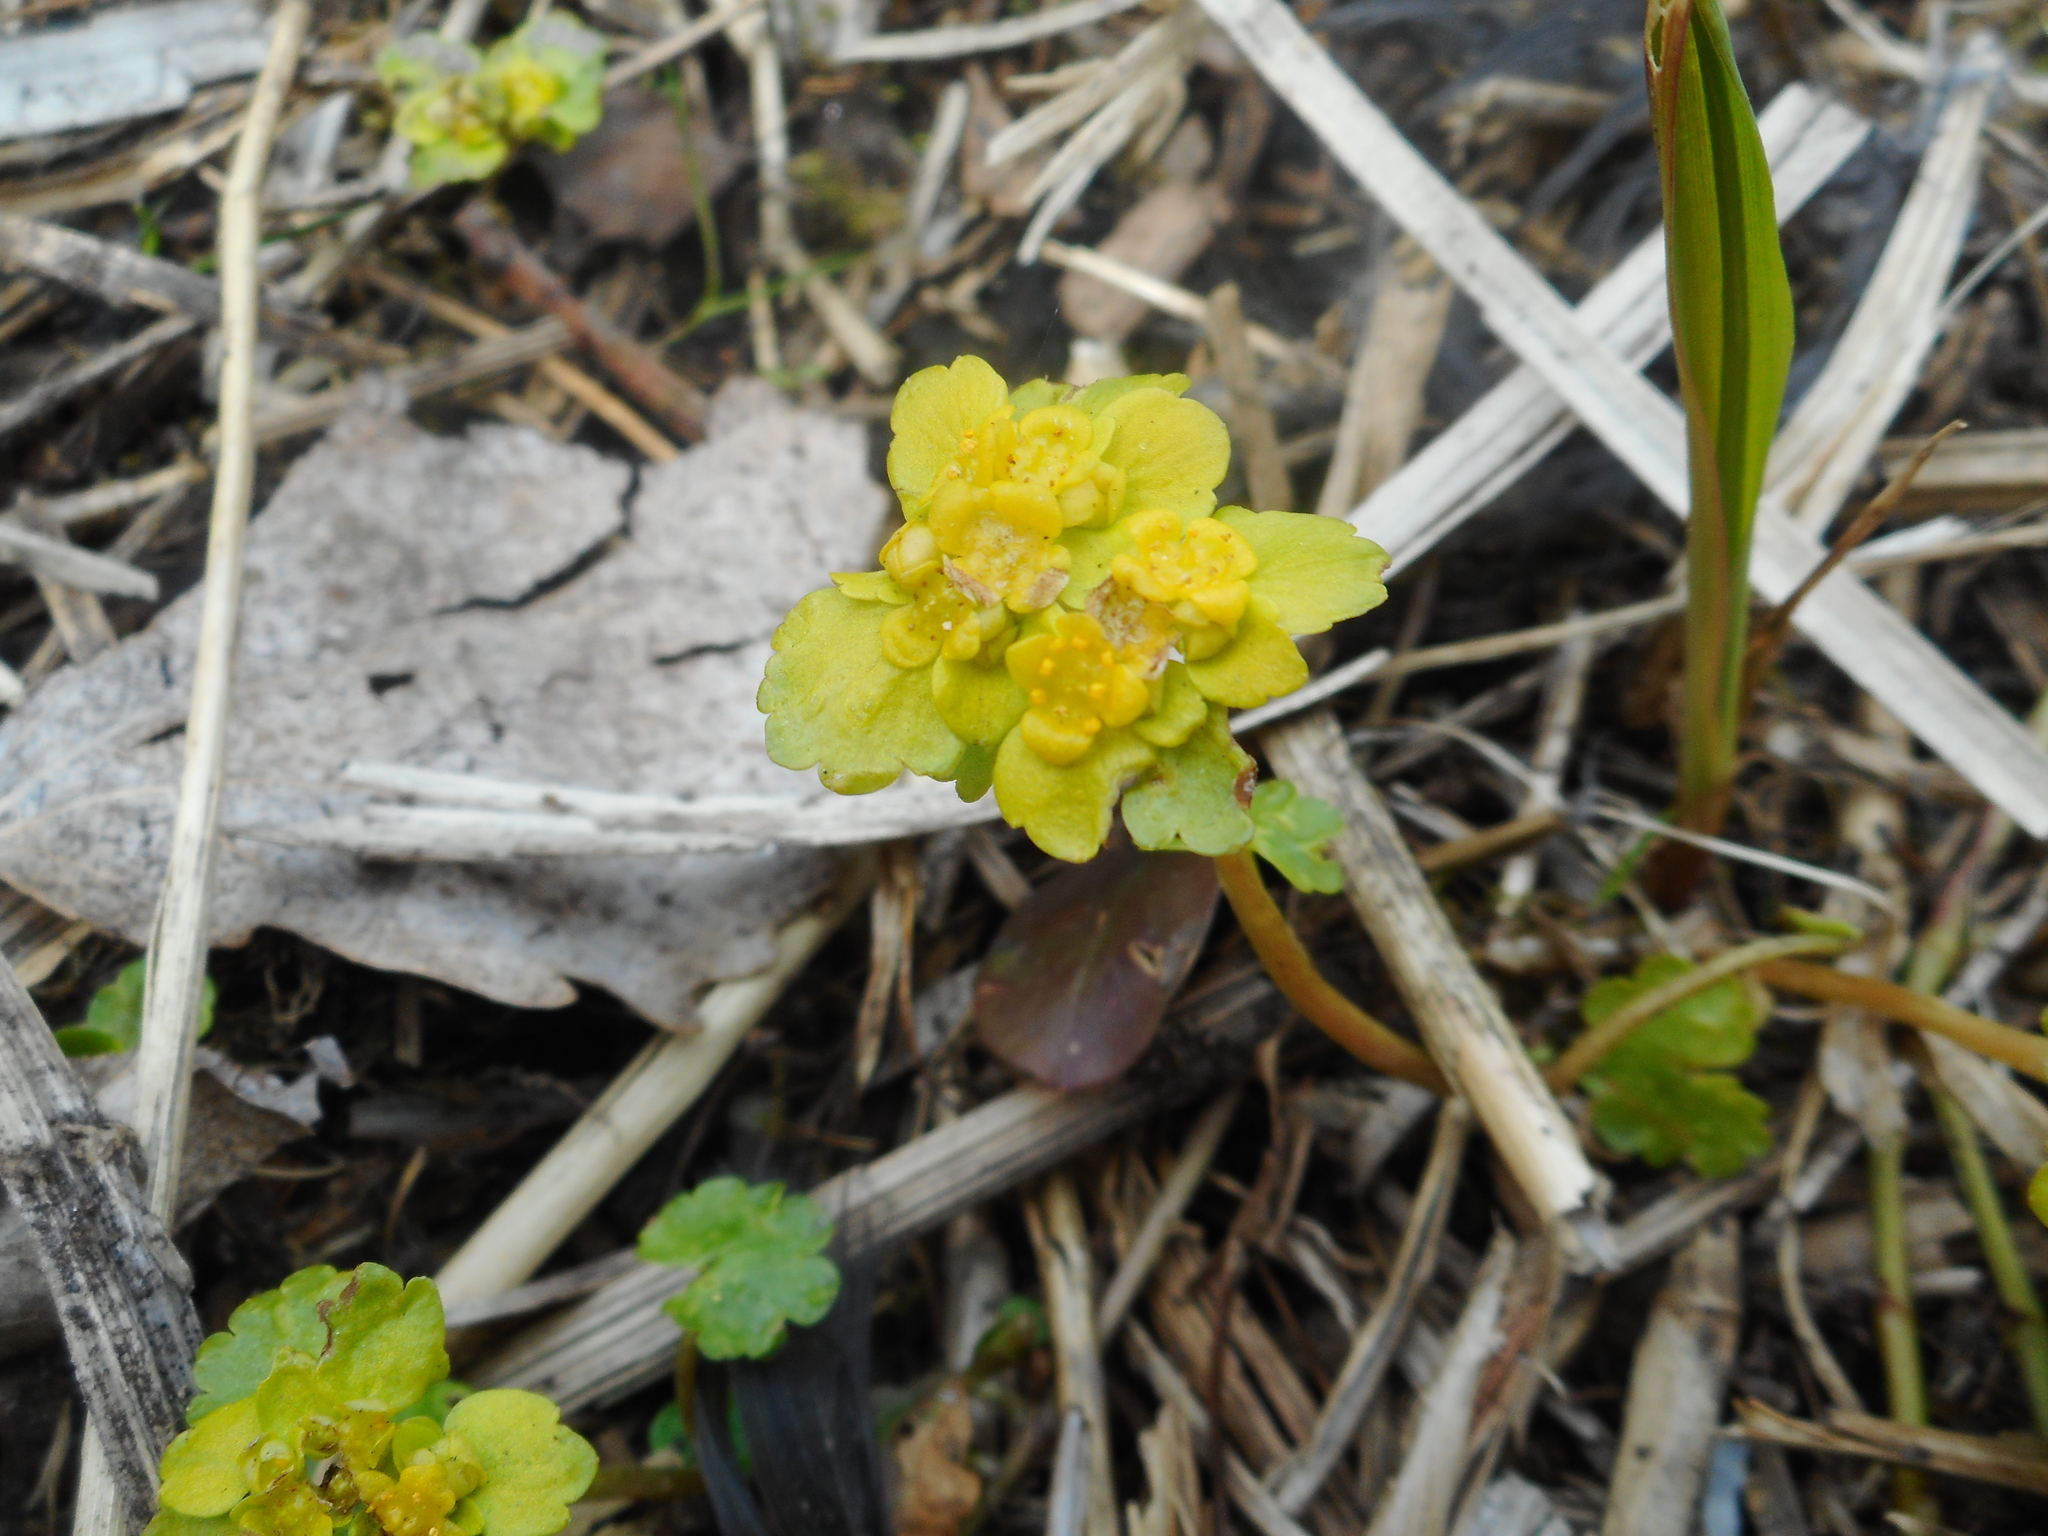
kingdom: Plantae
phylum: Tracheophyta
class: Magnoliopsida
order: Saxifragales
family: Saxifragaceae
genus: Chrysosplenium
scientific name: Chrysosplenium alternifolium
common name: Alternate-leaved golden-saxifrage
